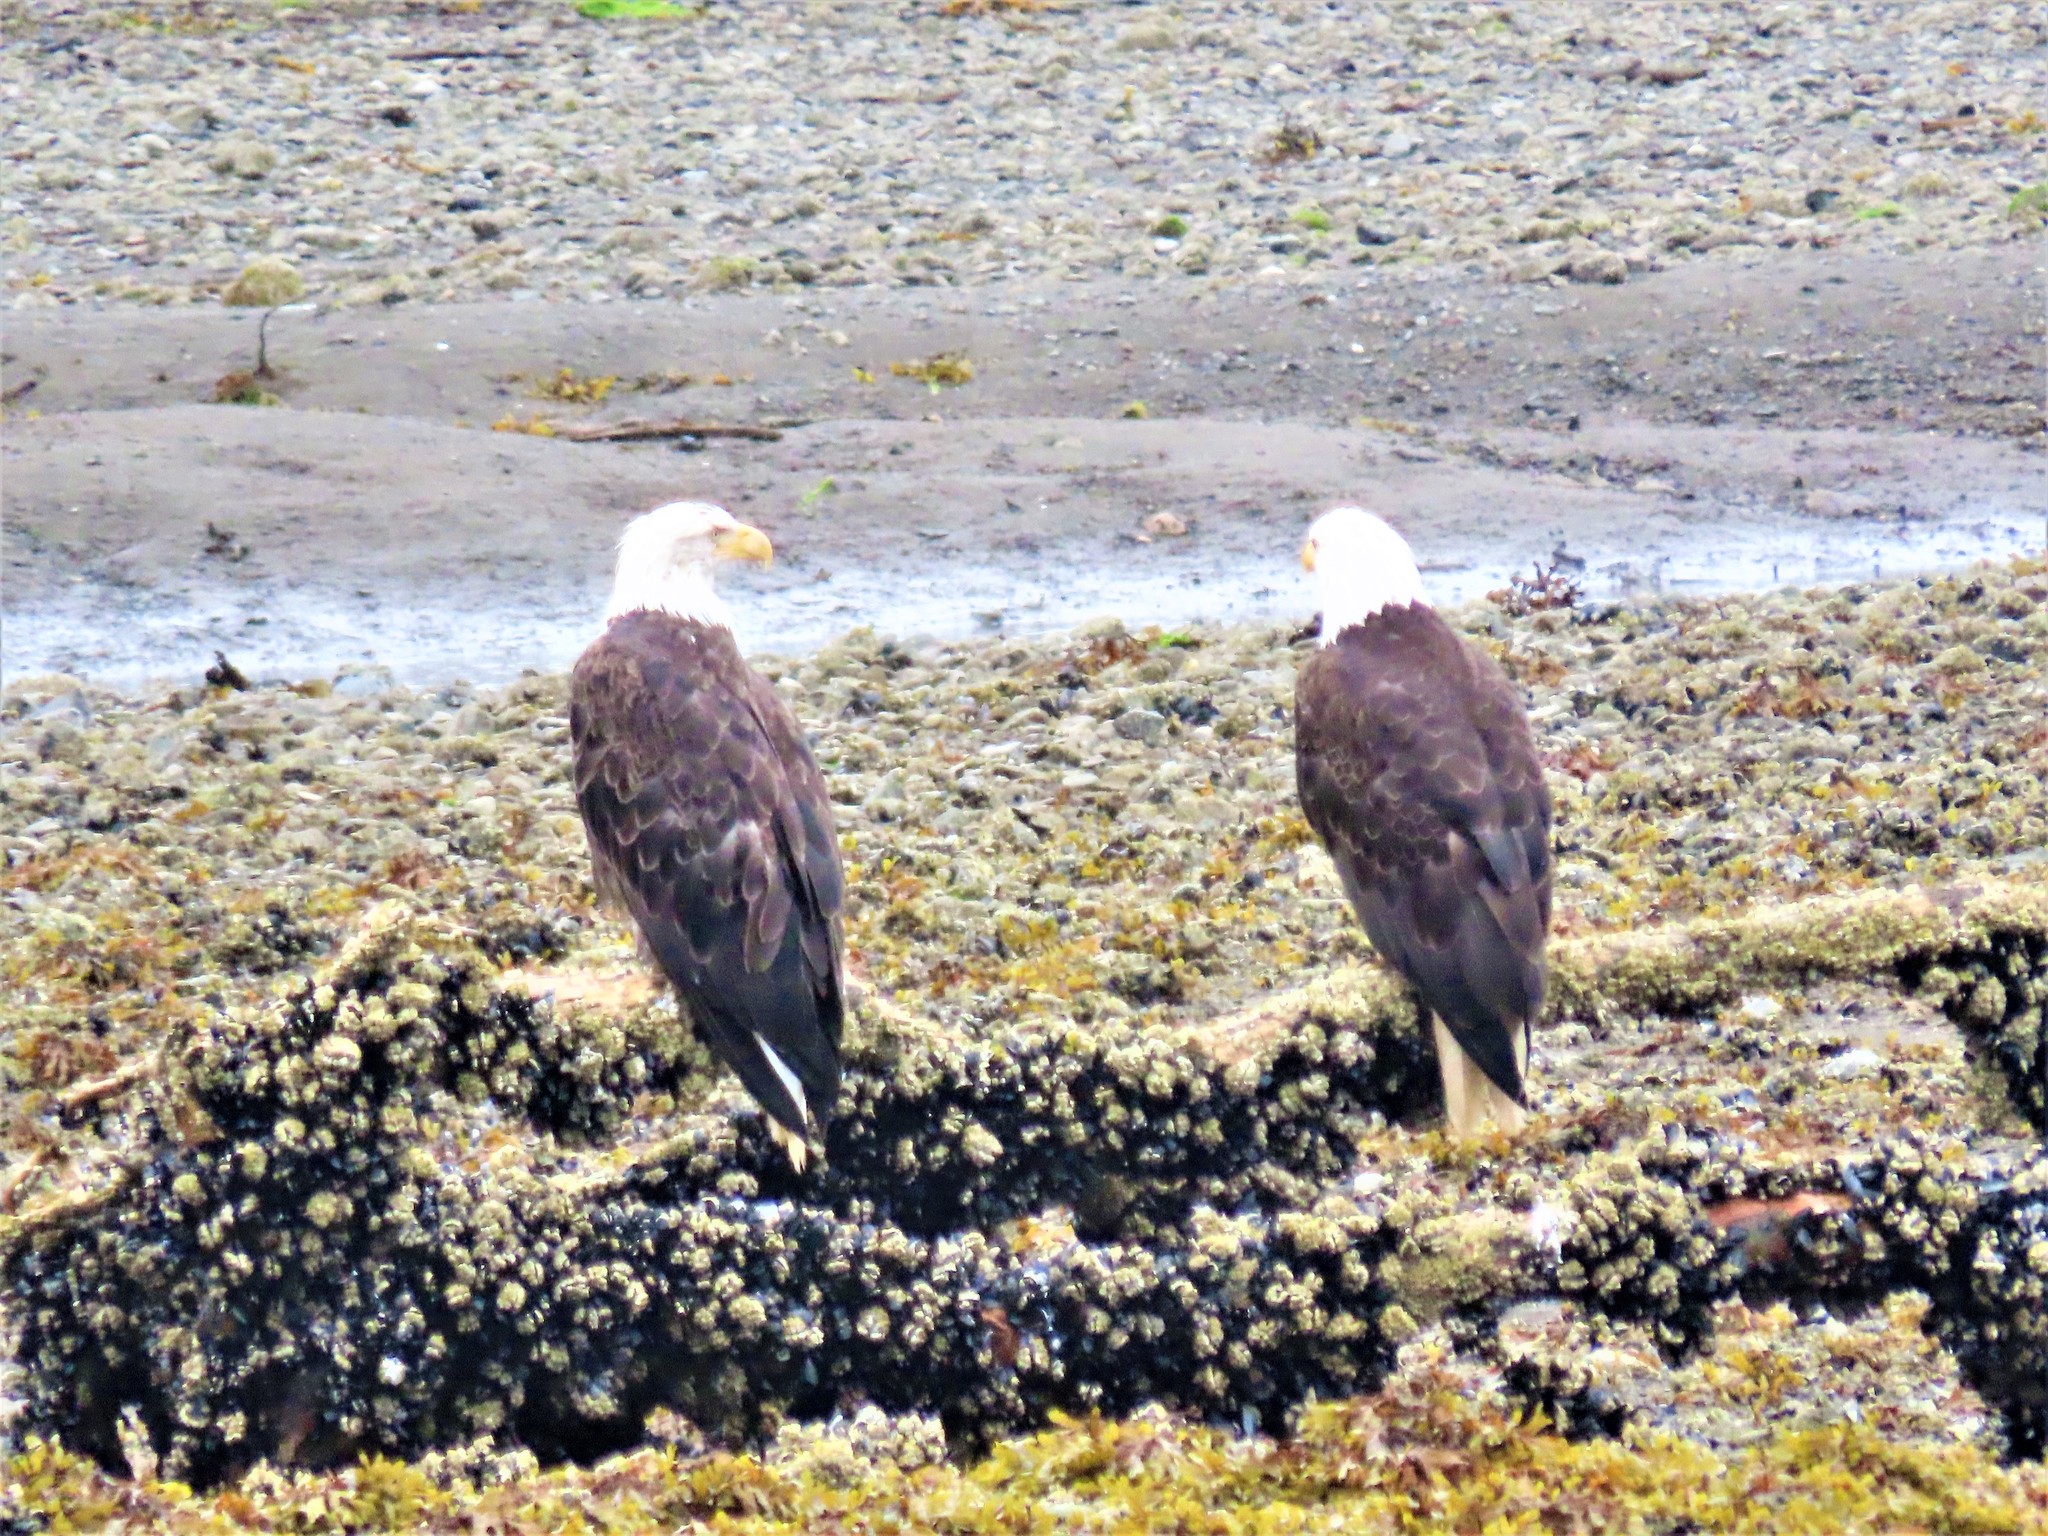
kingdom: Animalia
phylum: Chordata
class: Aves
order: Accipitriformes
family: Accipitridae
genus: Haliaeetus
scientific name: Haliaeetus leucocephalus
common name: Bald eagle
